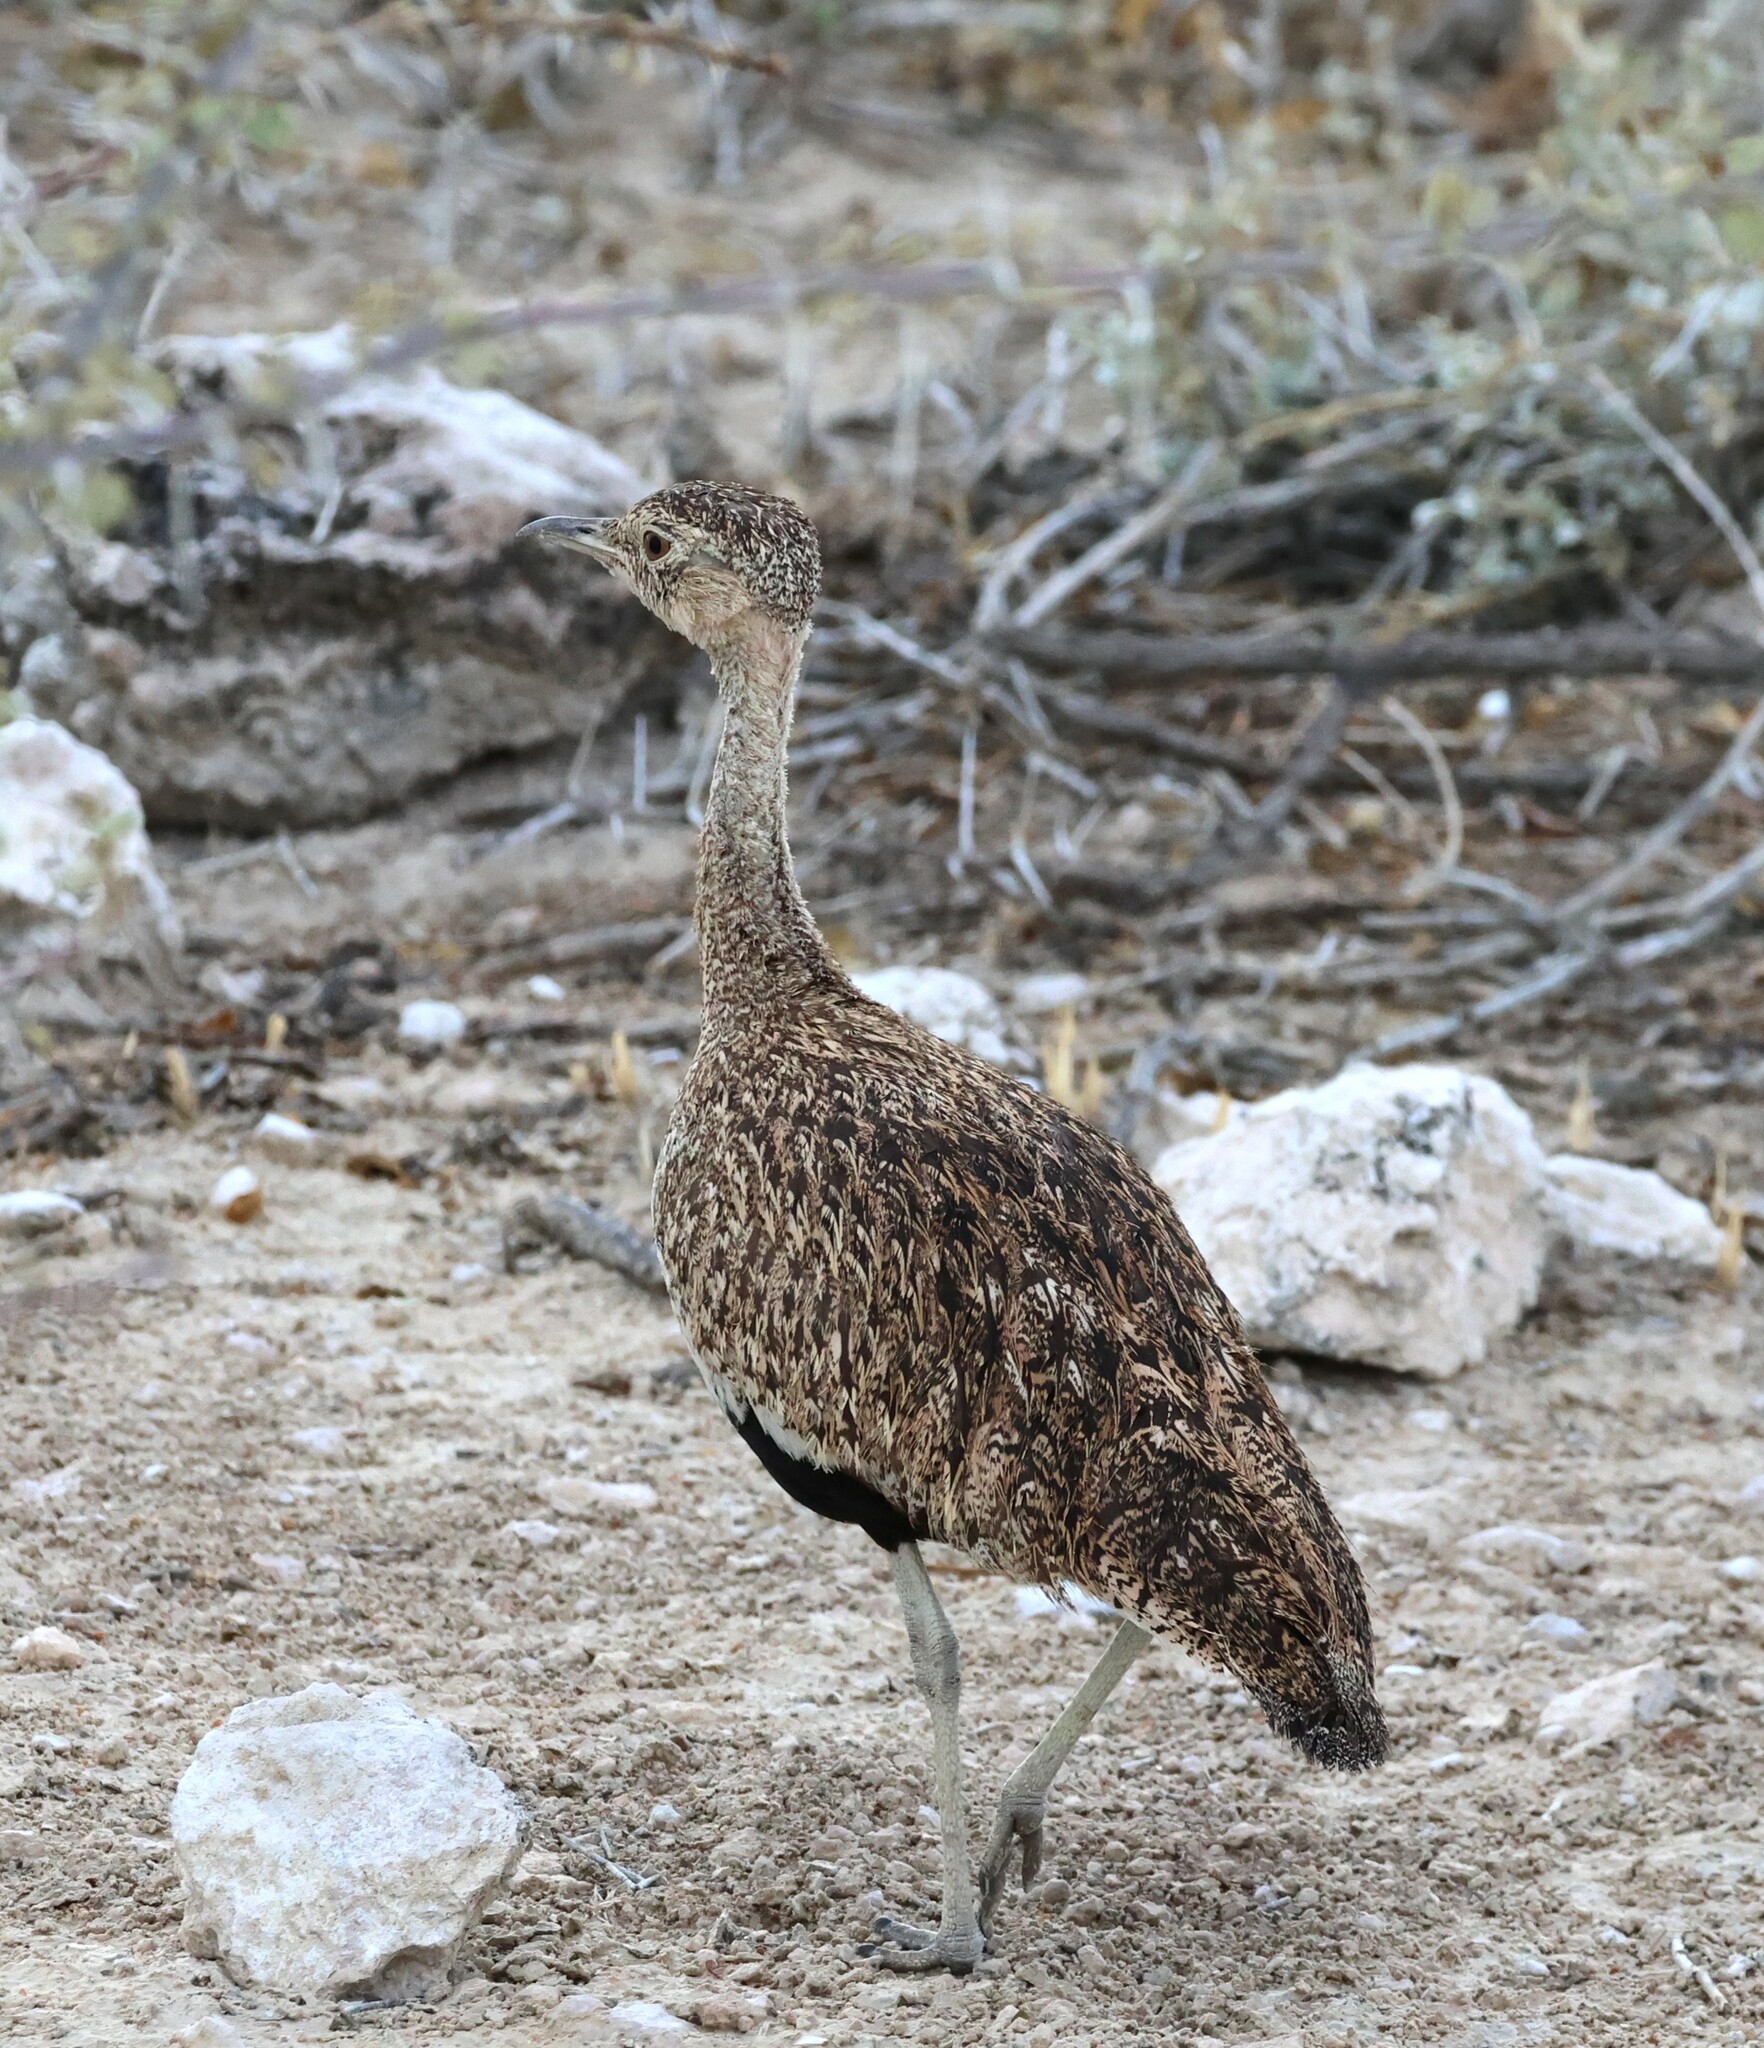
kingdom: Animalia
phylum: Chordata
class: Aves
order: Otidiformes
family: Otididae
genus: Lophotis
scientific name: Lophotis ruficrista
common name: Red-crested korhaan
